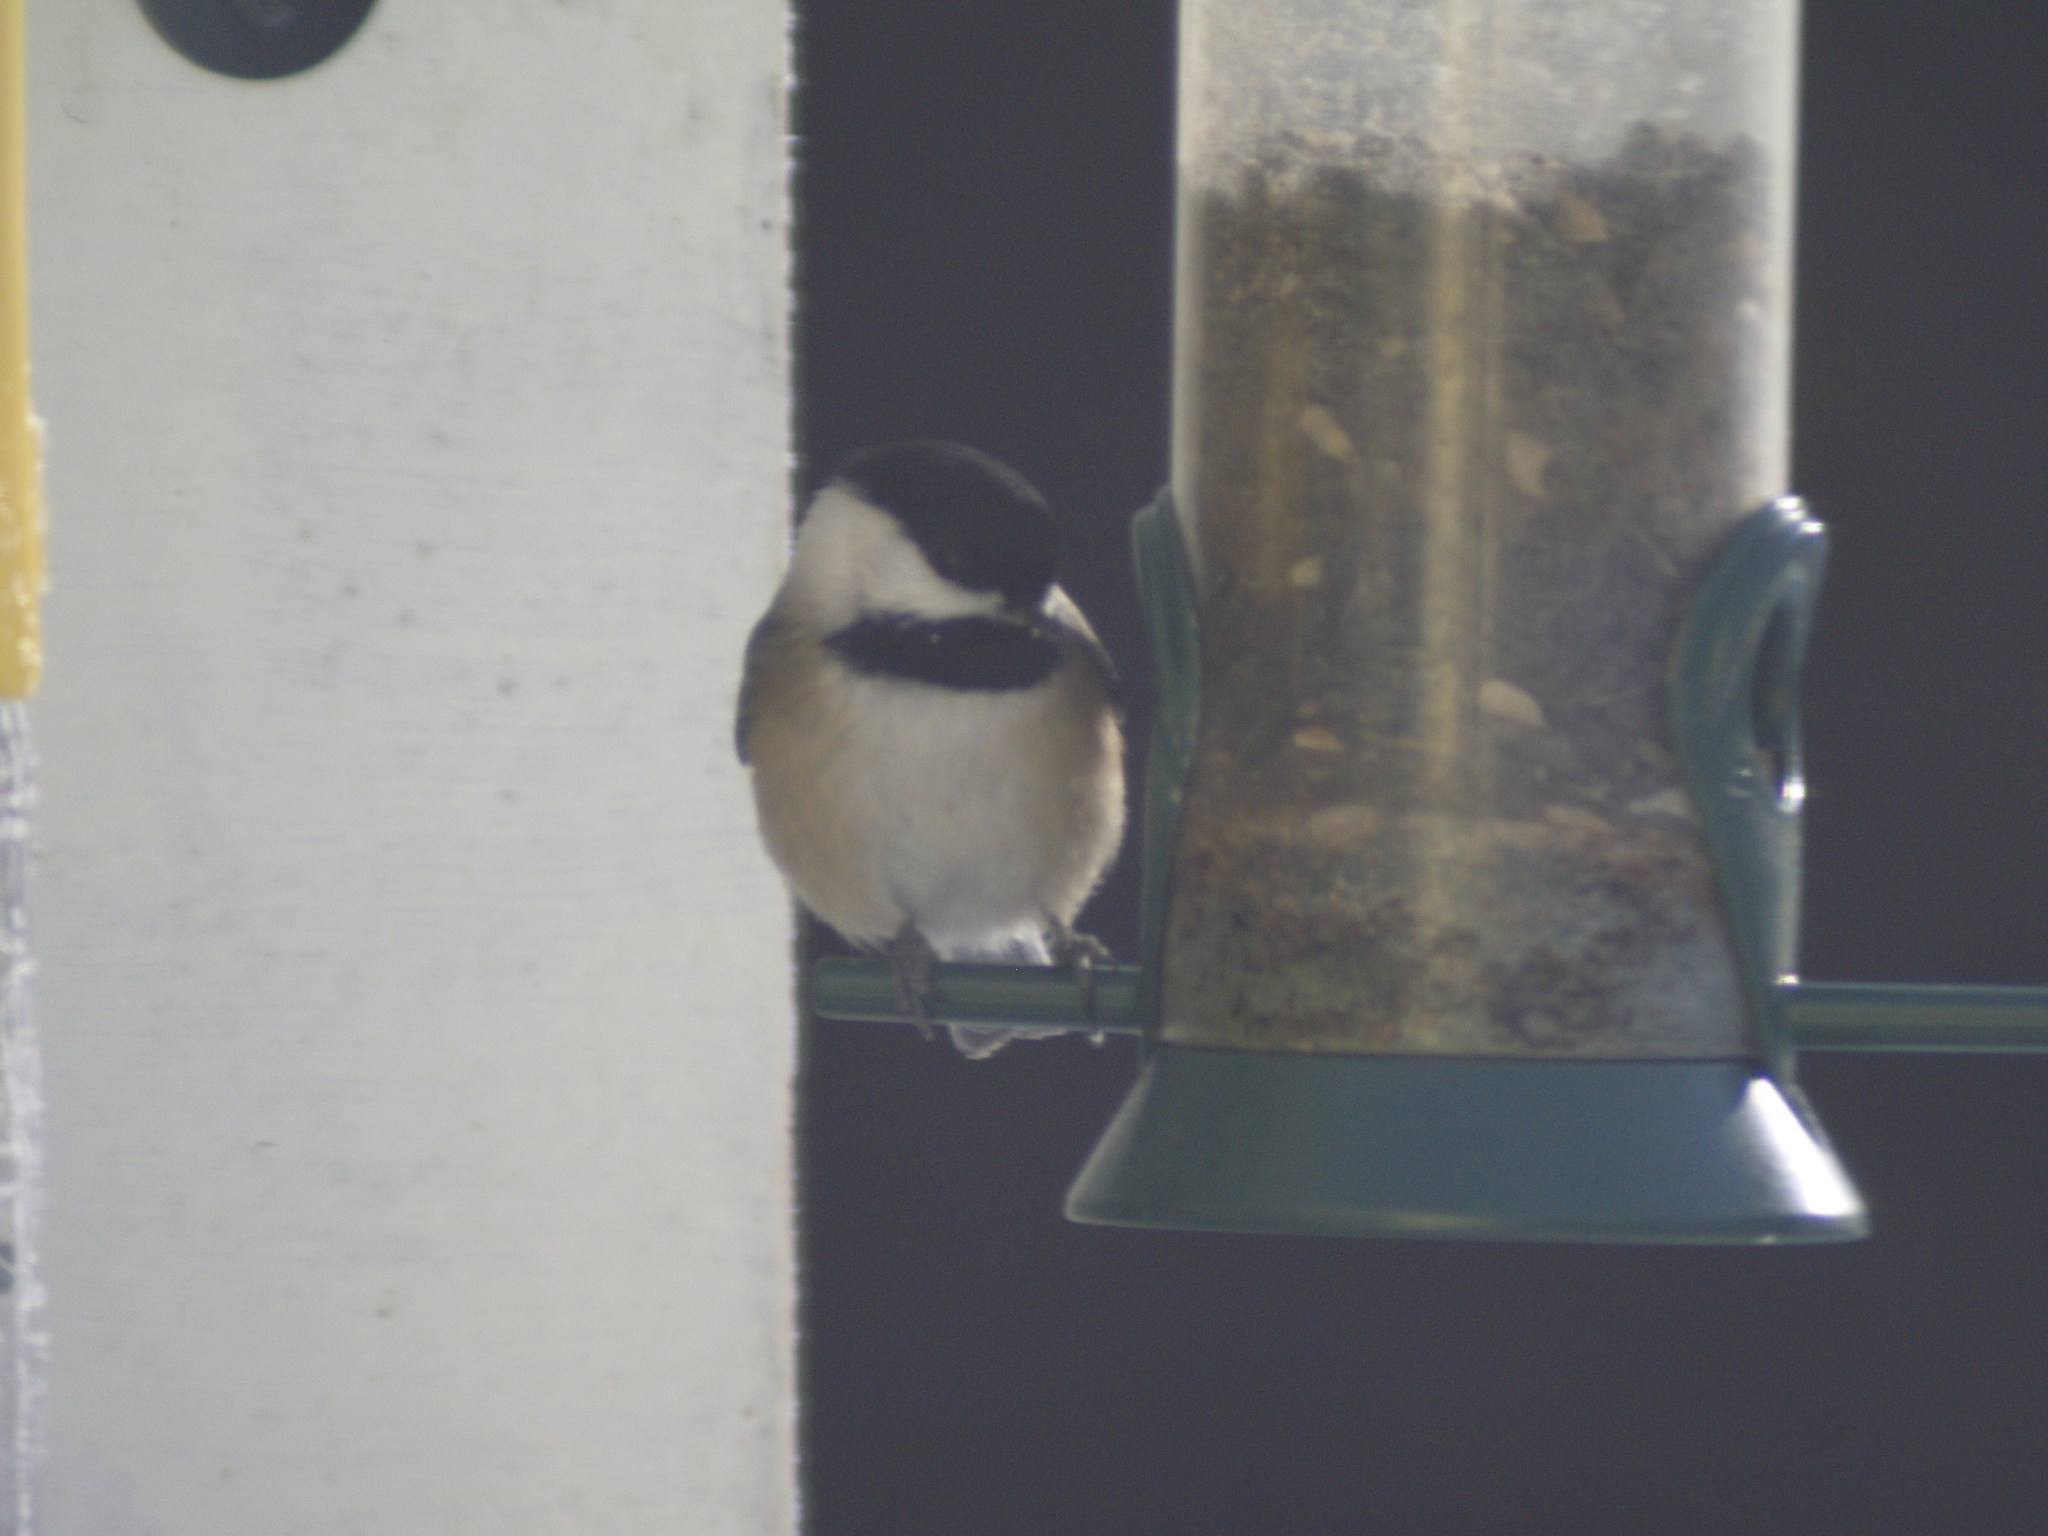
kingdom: Animalia
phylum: Chordata
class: Aves
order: Passeriformes
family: Paridae
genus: Poecile
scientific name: Poecile atricapillus
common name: Black-capped chickadee
